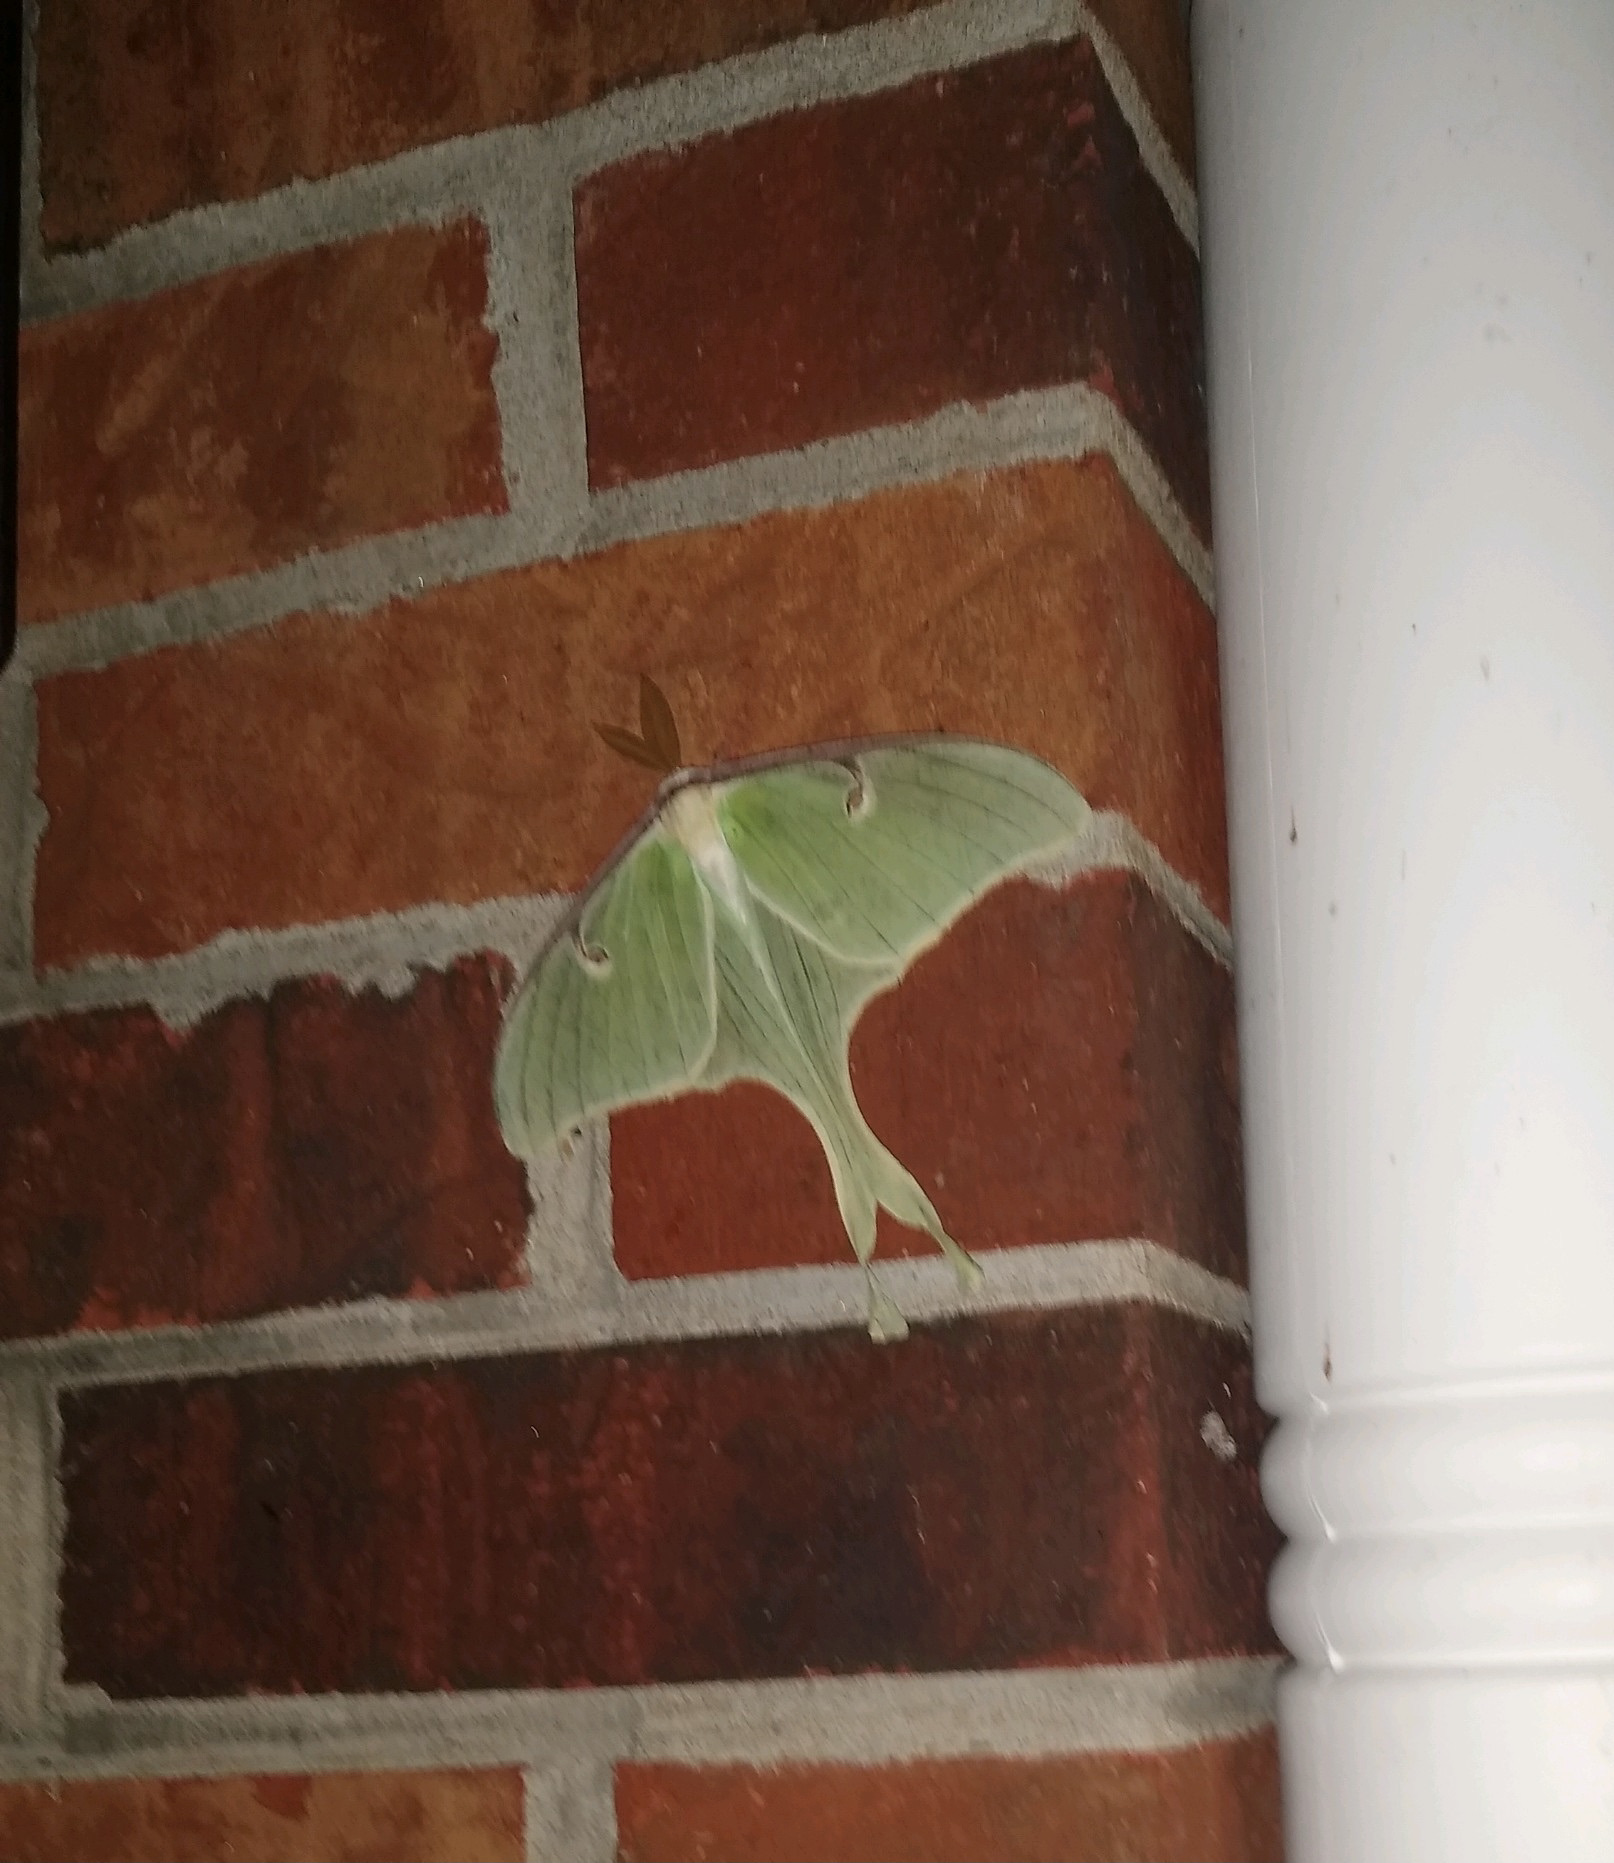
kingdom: Animalia
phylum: Arthropoda
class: Insecta
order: Lepidoptera
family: Saturniidae
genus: Actias
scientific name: Actias luna
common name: Luna moth
